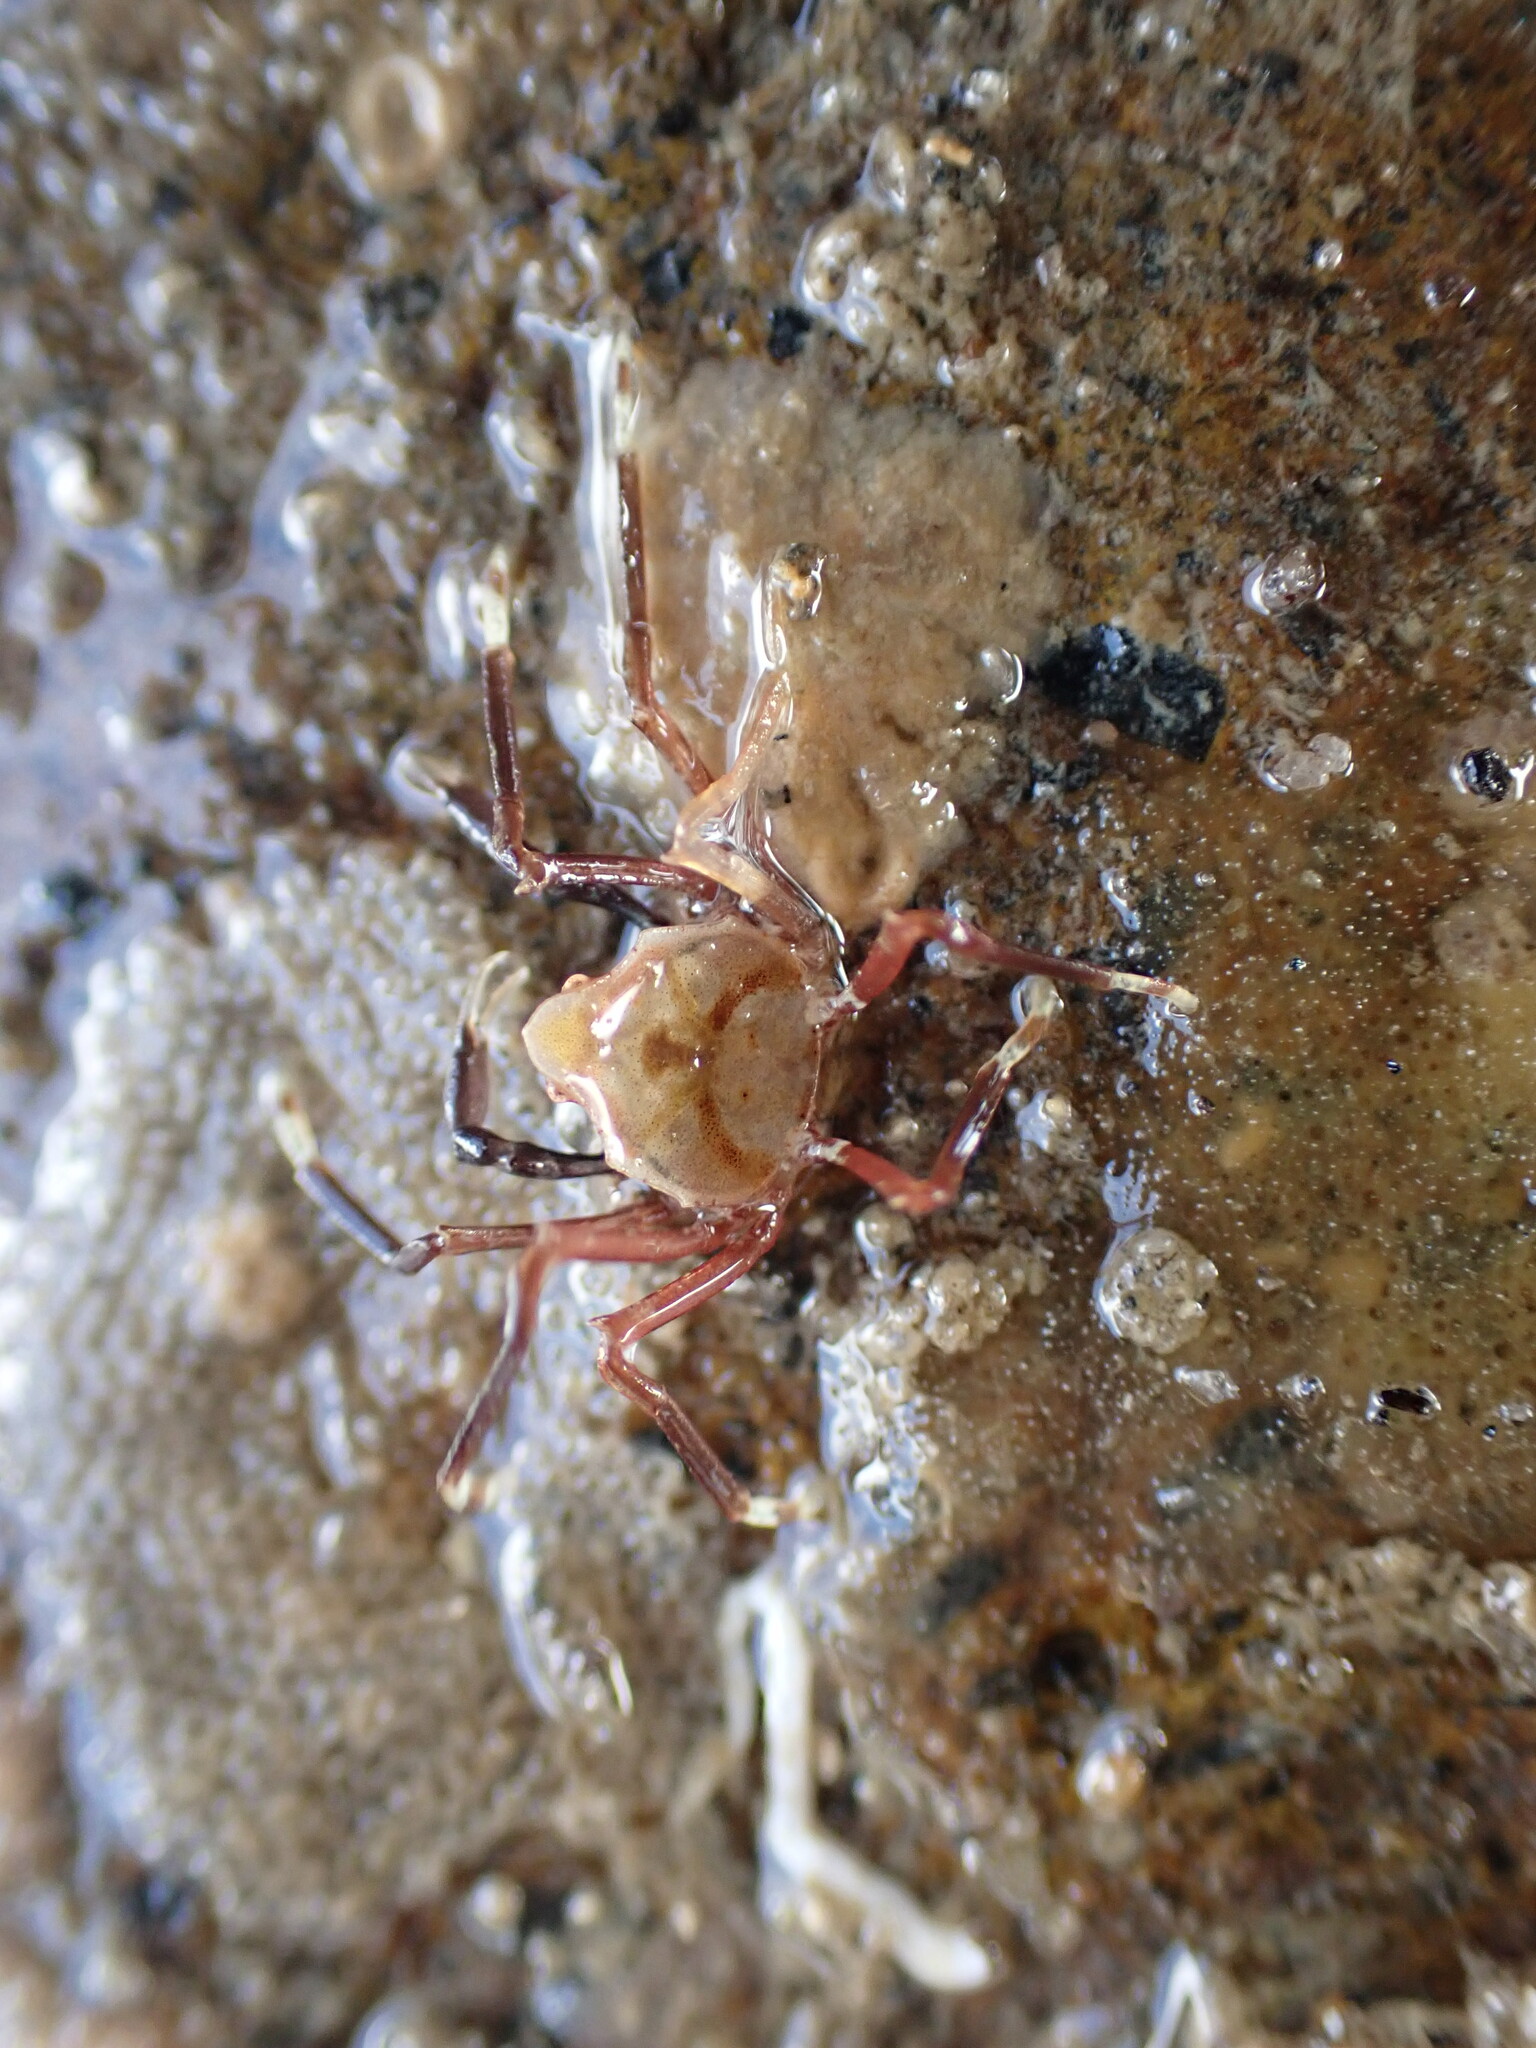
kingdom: Animalia
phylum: Arthropoda
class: Malacostraca
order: Decapoda
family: Hymenosomatidae
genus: Elamena
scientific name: Elamena producta
